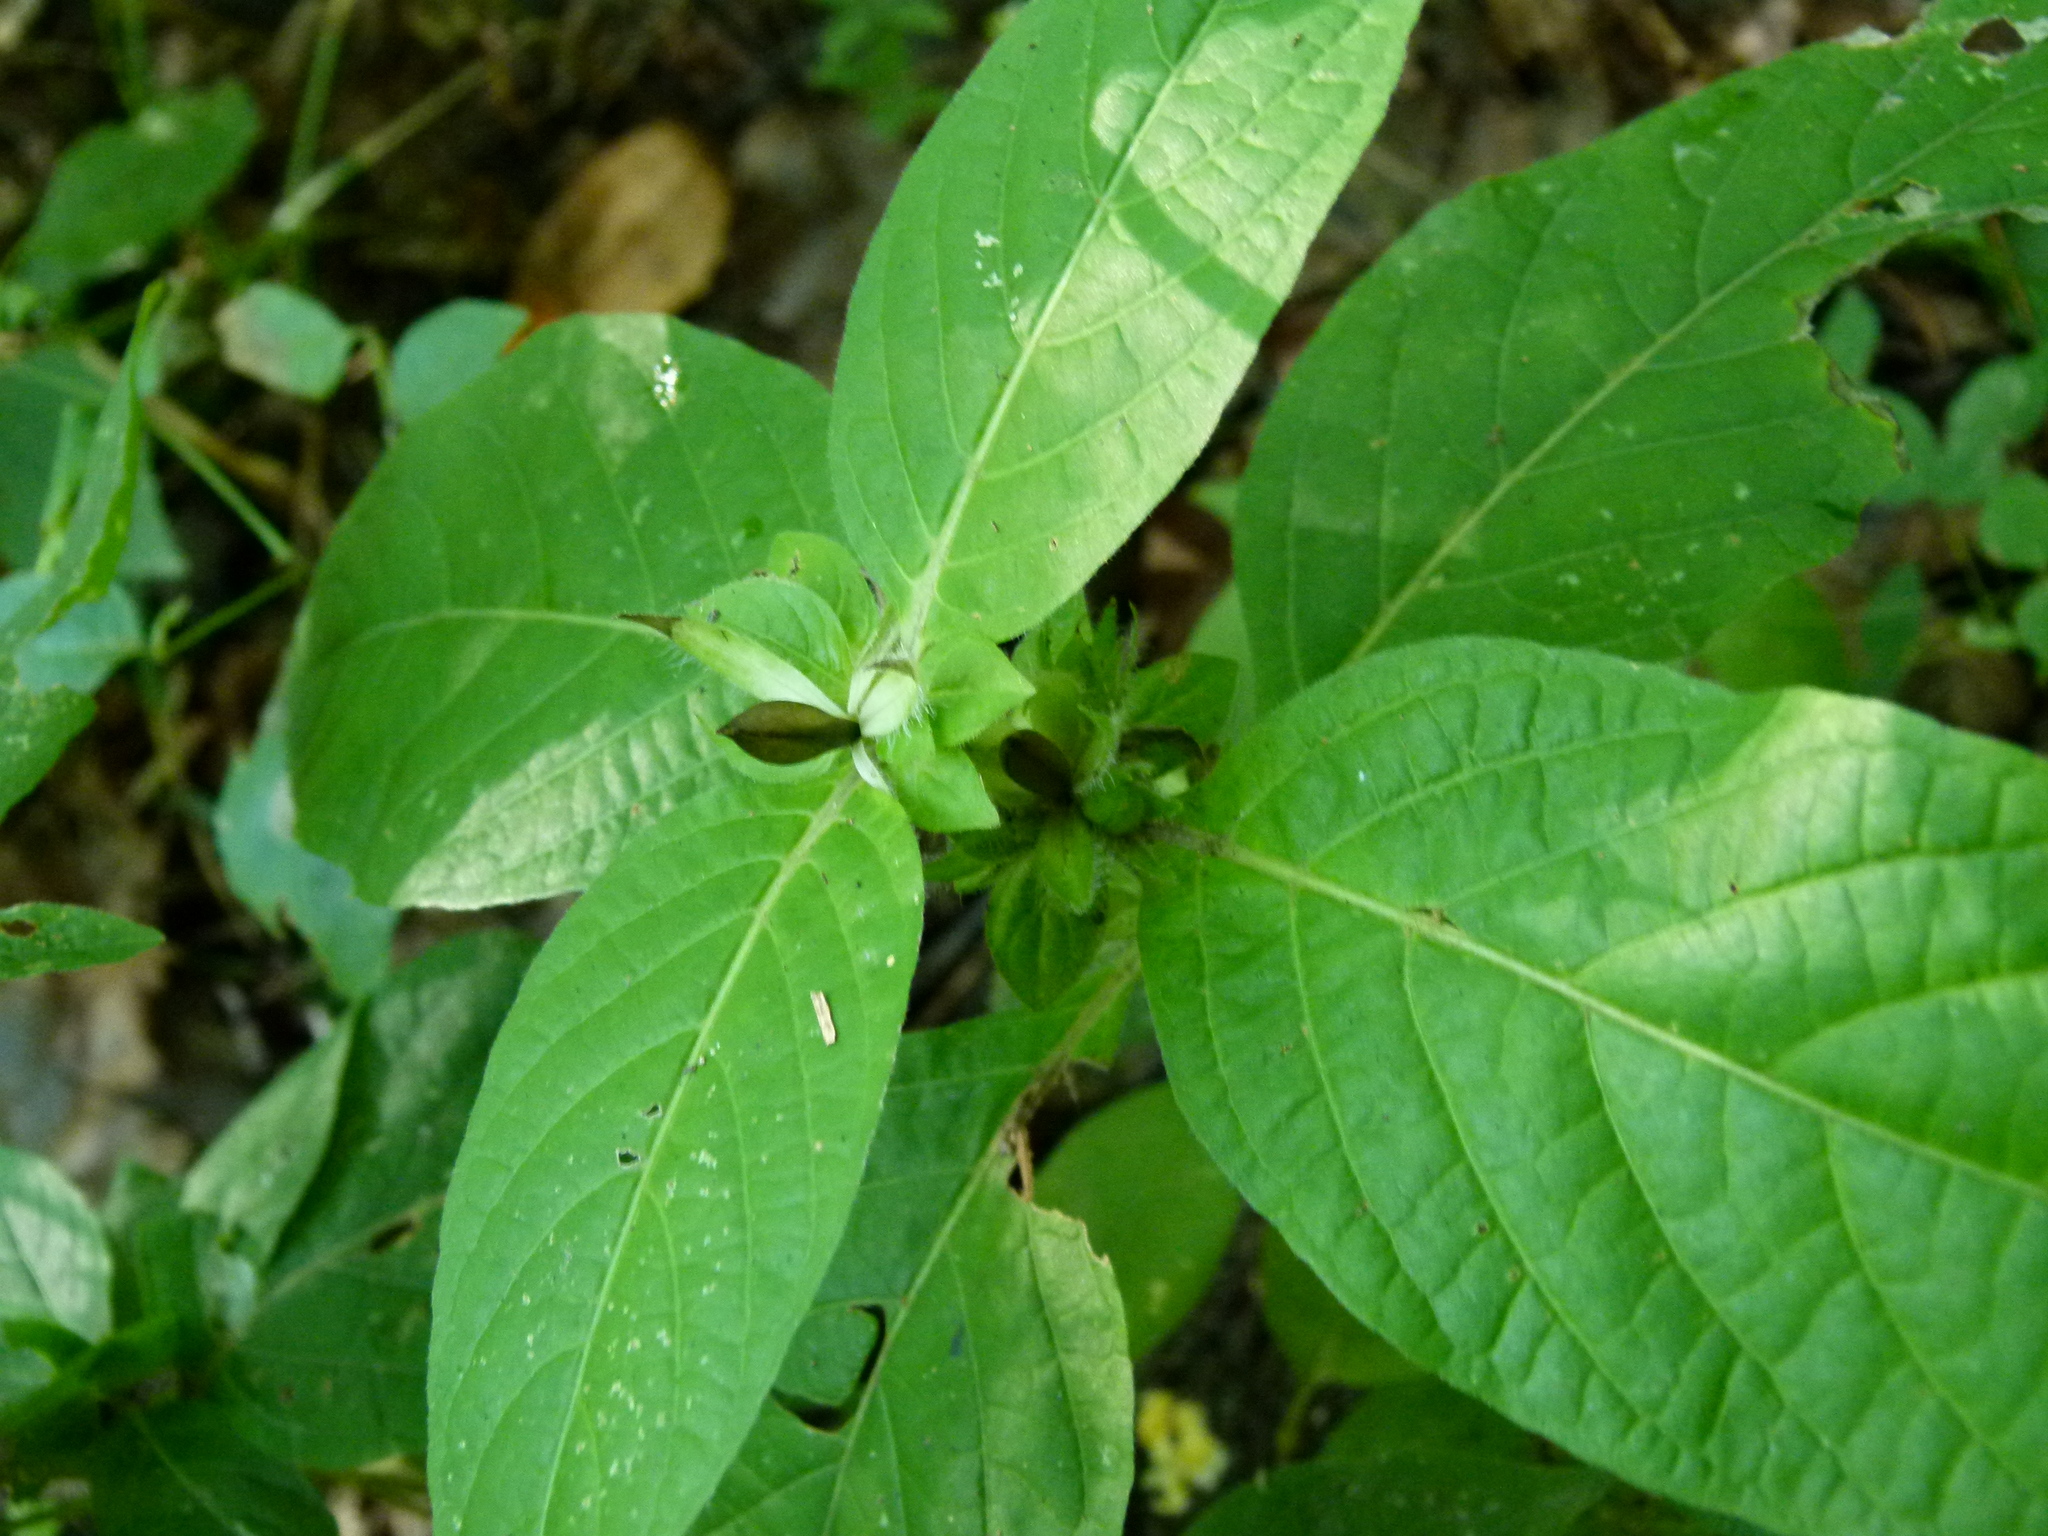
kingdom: Plantae
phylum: Tracheophyta
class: Magnoliopsida
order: Lamiales
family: Acanthaceae
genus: Ruellia
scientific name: Ruellia strepens
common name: Limestone wild petunia
